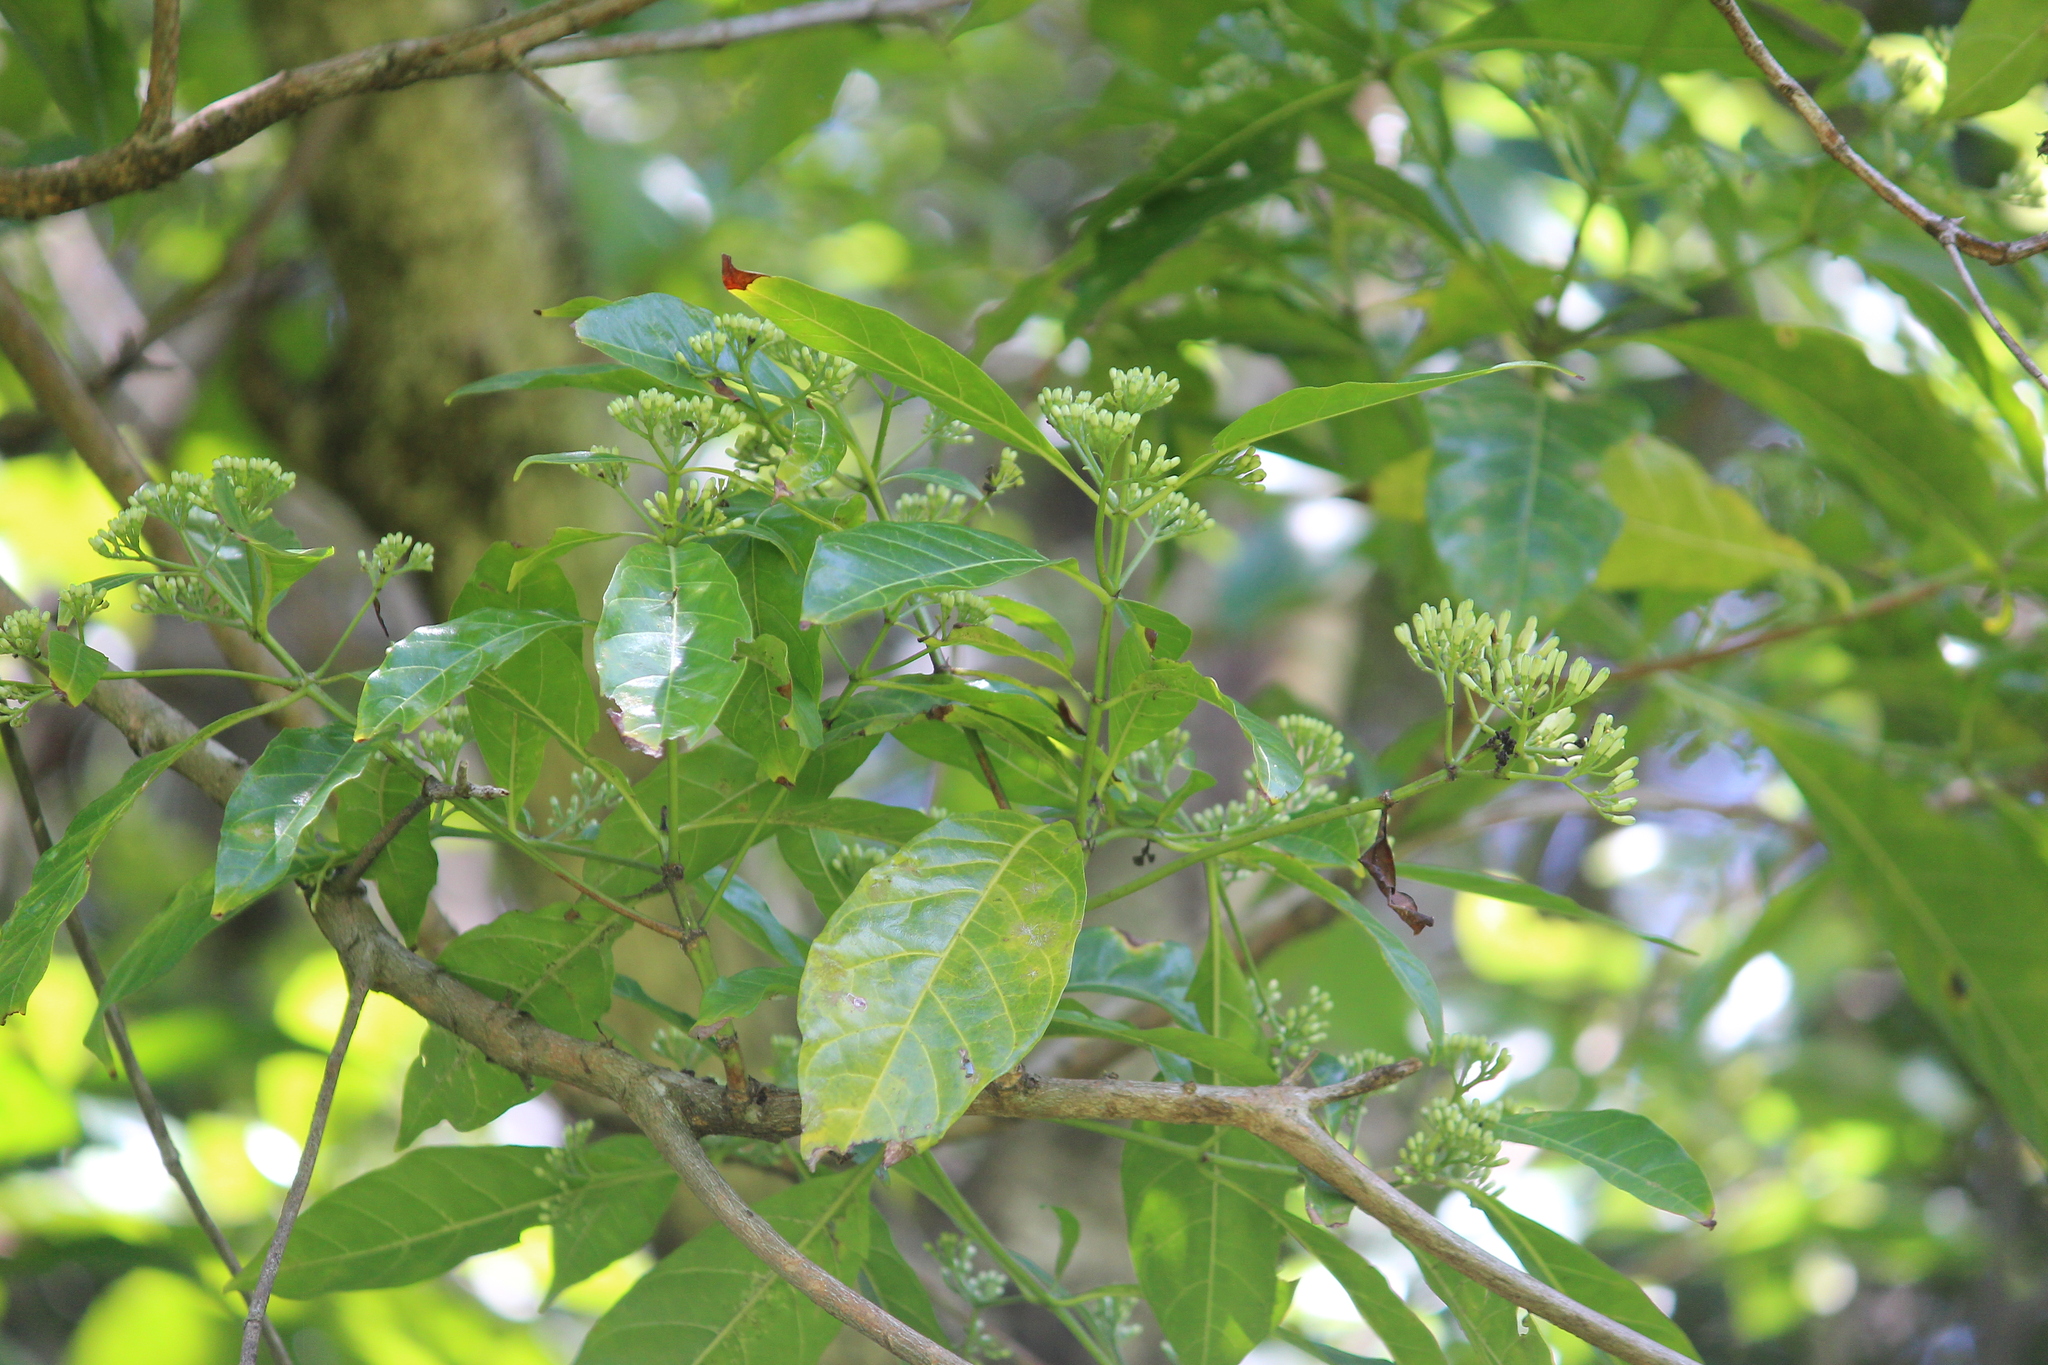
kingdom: Plantae
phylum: Tracheophyta
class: Magnoliopsida
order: Gentianales
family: Rubiaceae
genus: Tarenna
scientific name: Tarenna pavettoides
